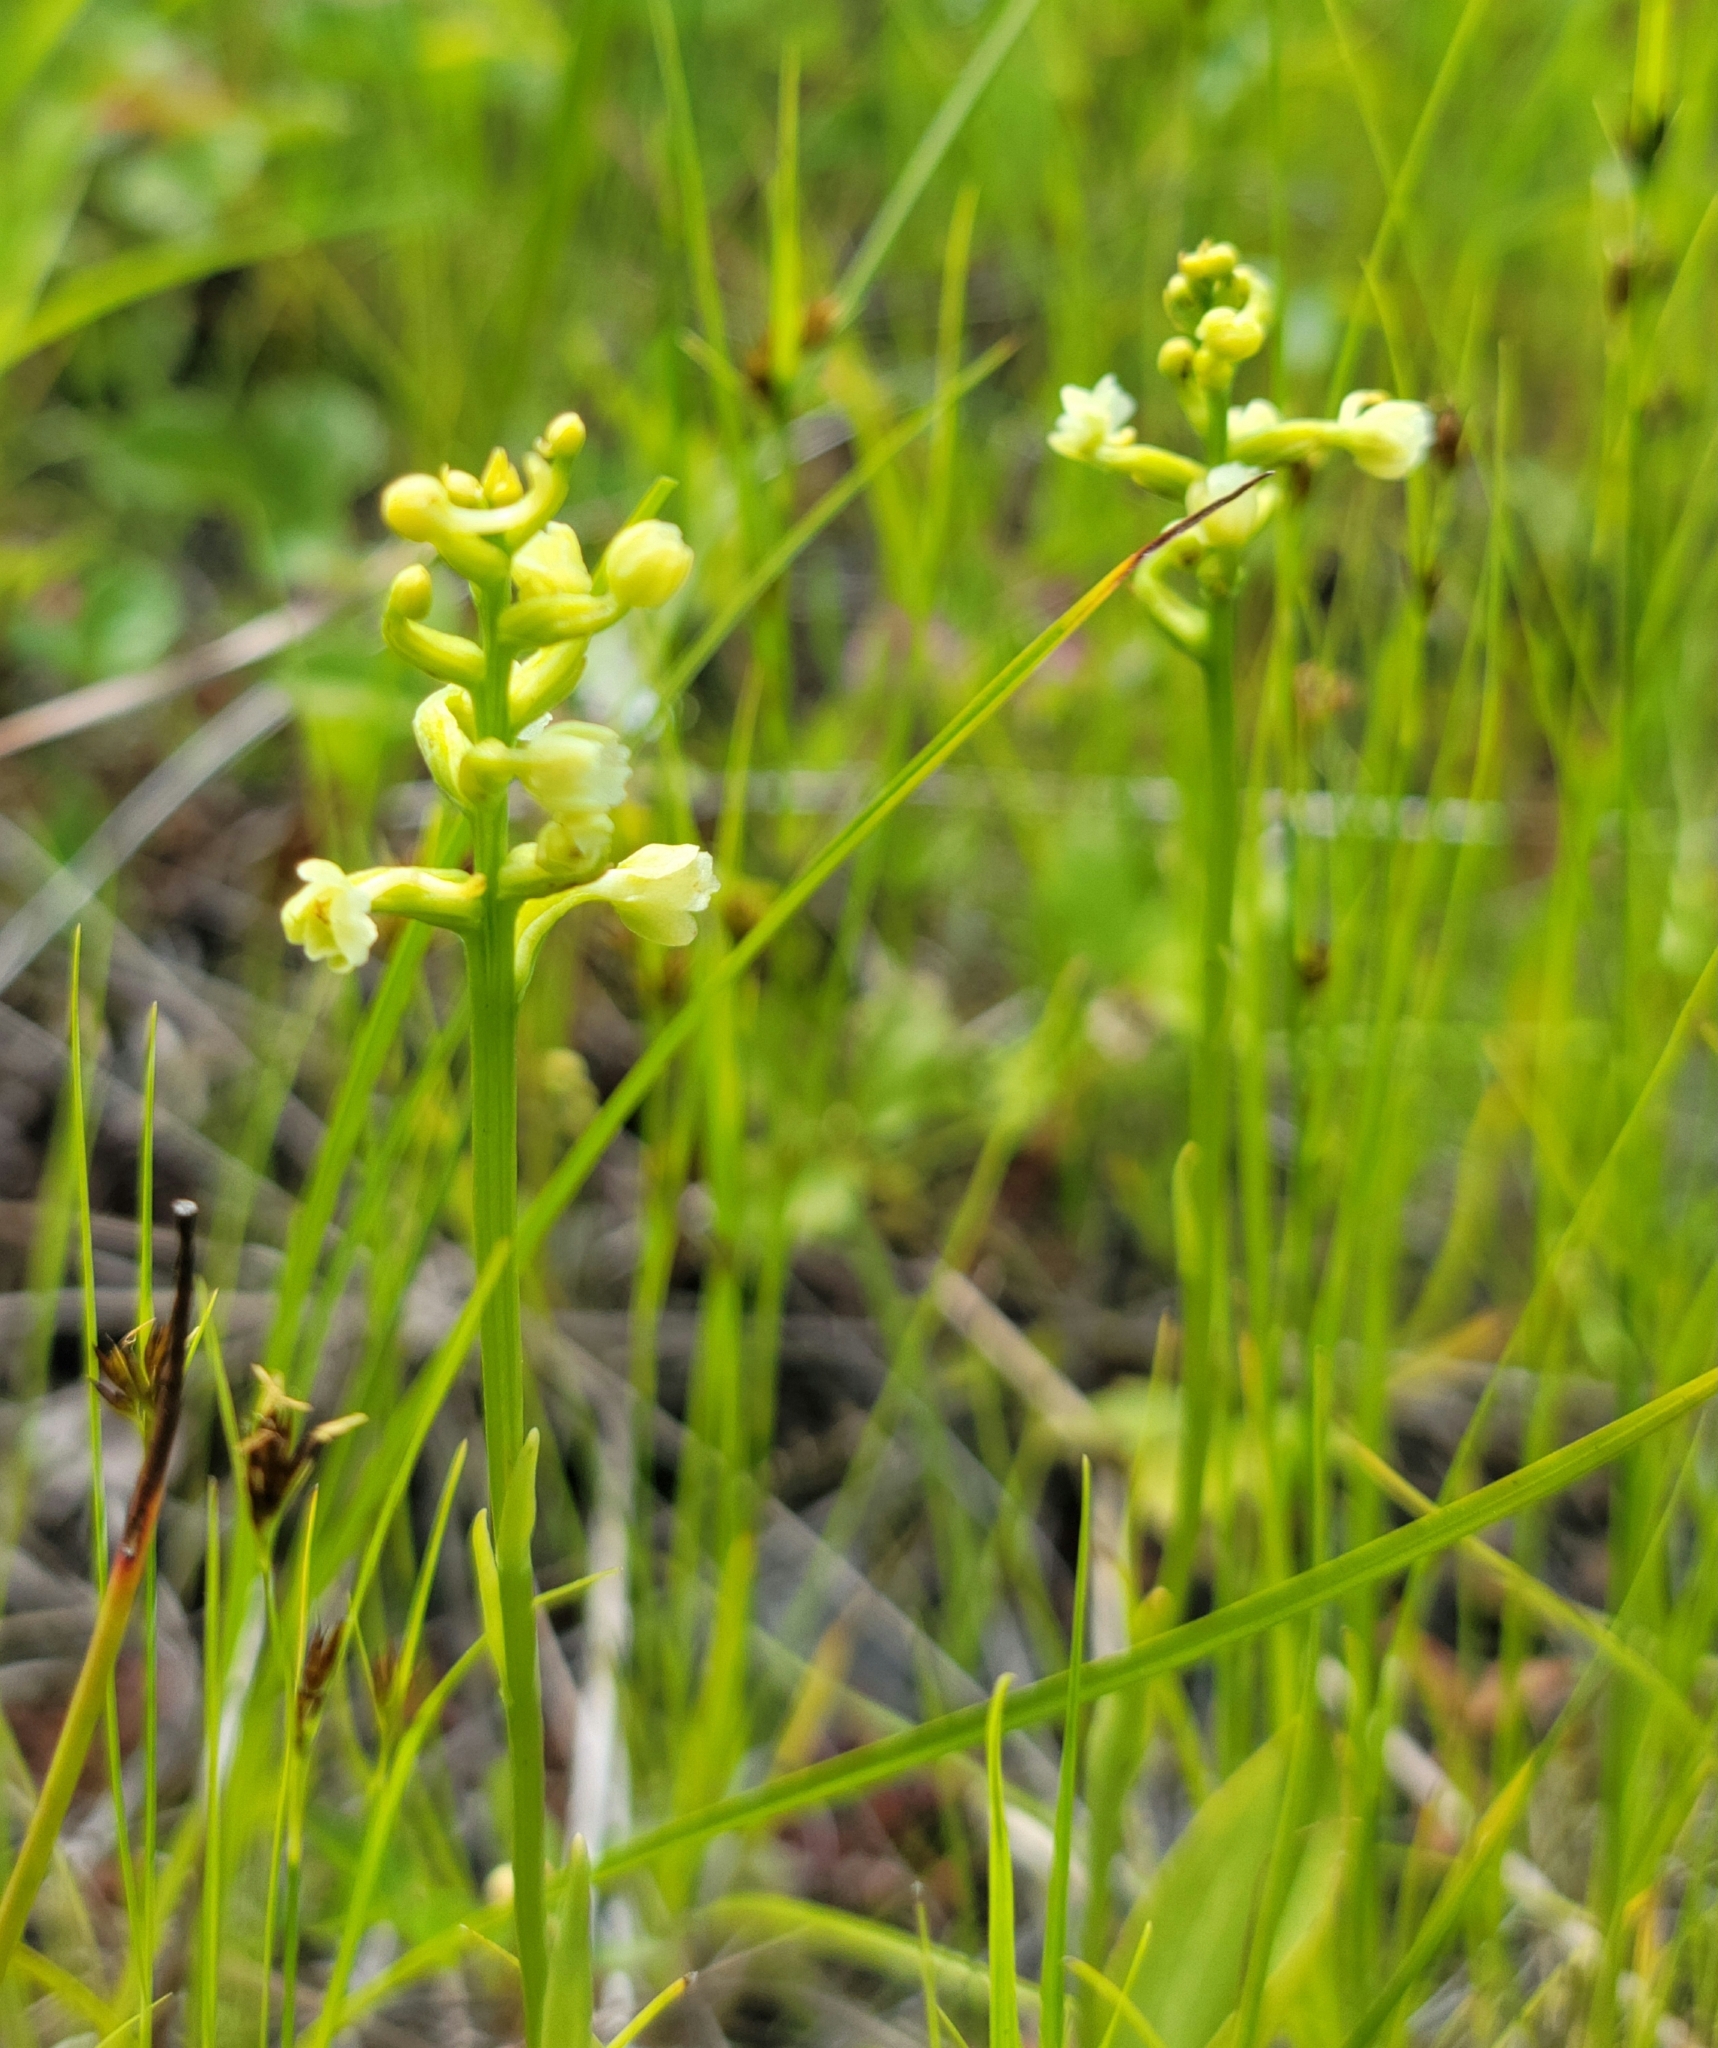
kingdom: Plantae
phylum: Tracheophyta
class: Liliopsida
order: Asparagales
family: Orchidaceae
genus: Platanthera
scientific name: Platanthera clavellata
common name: Club-spur orchid
